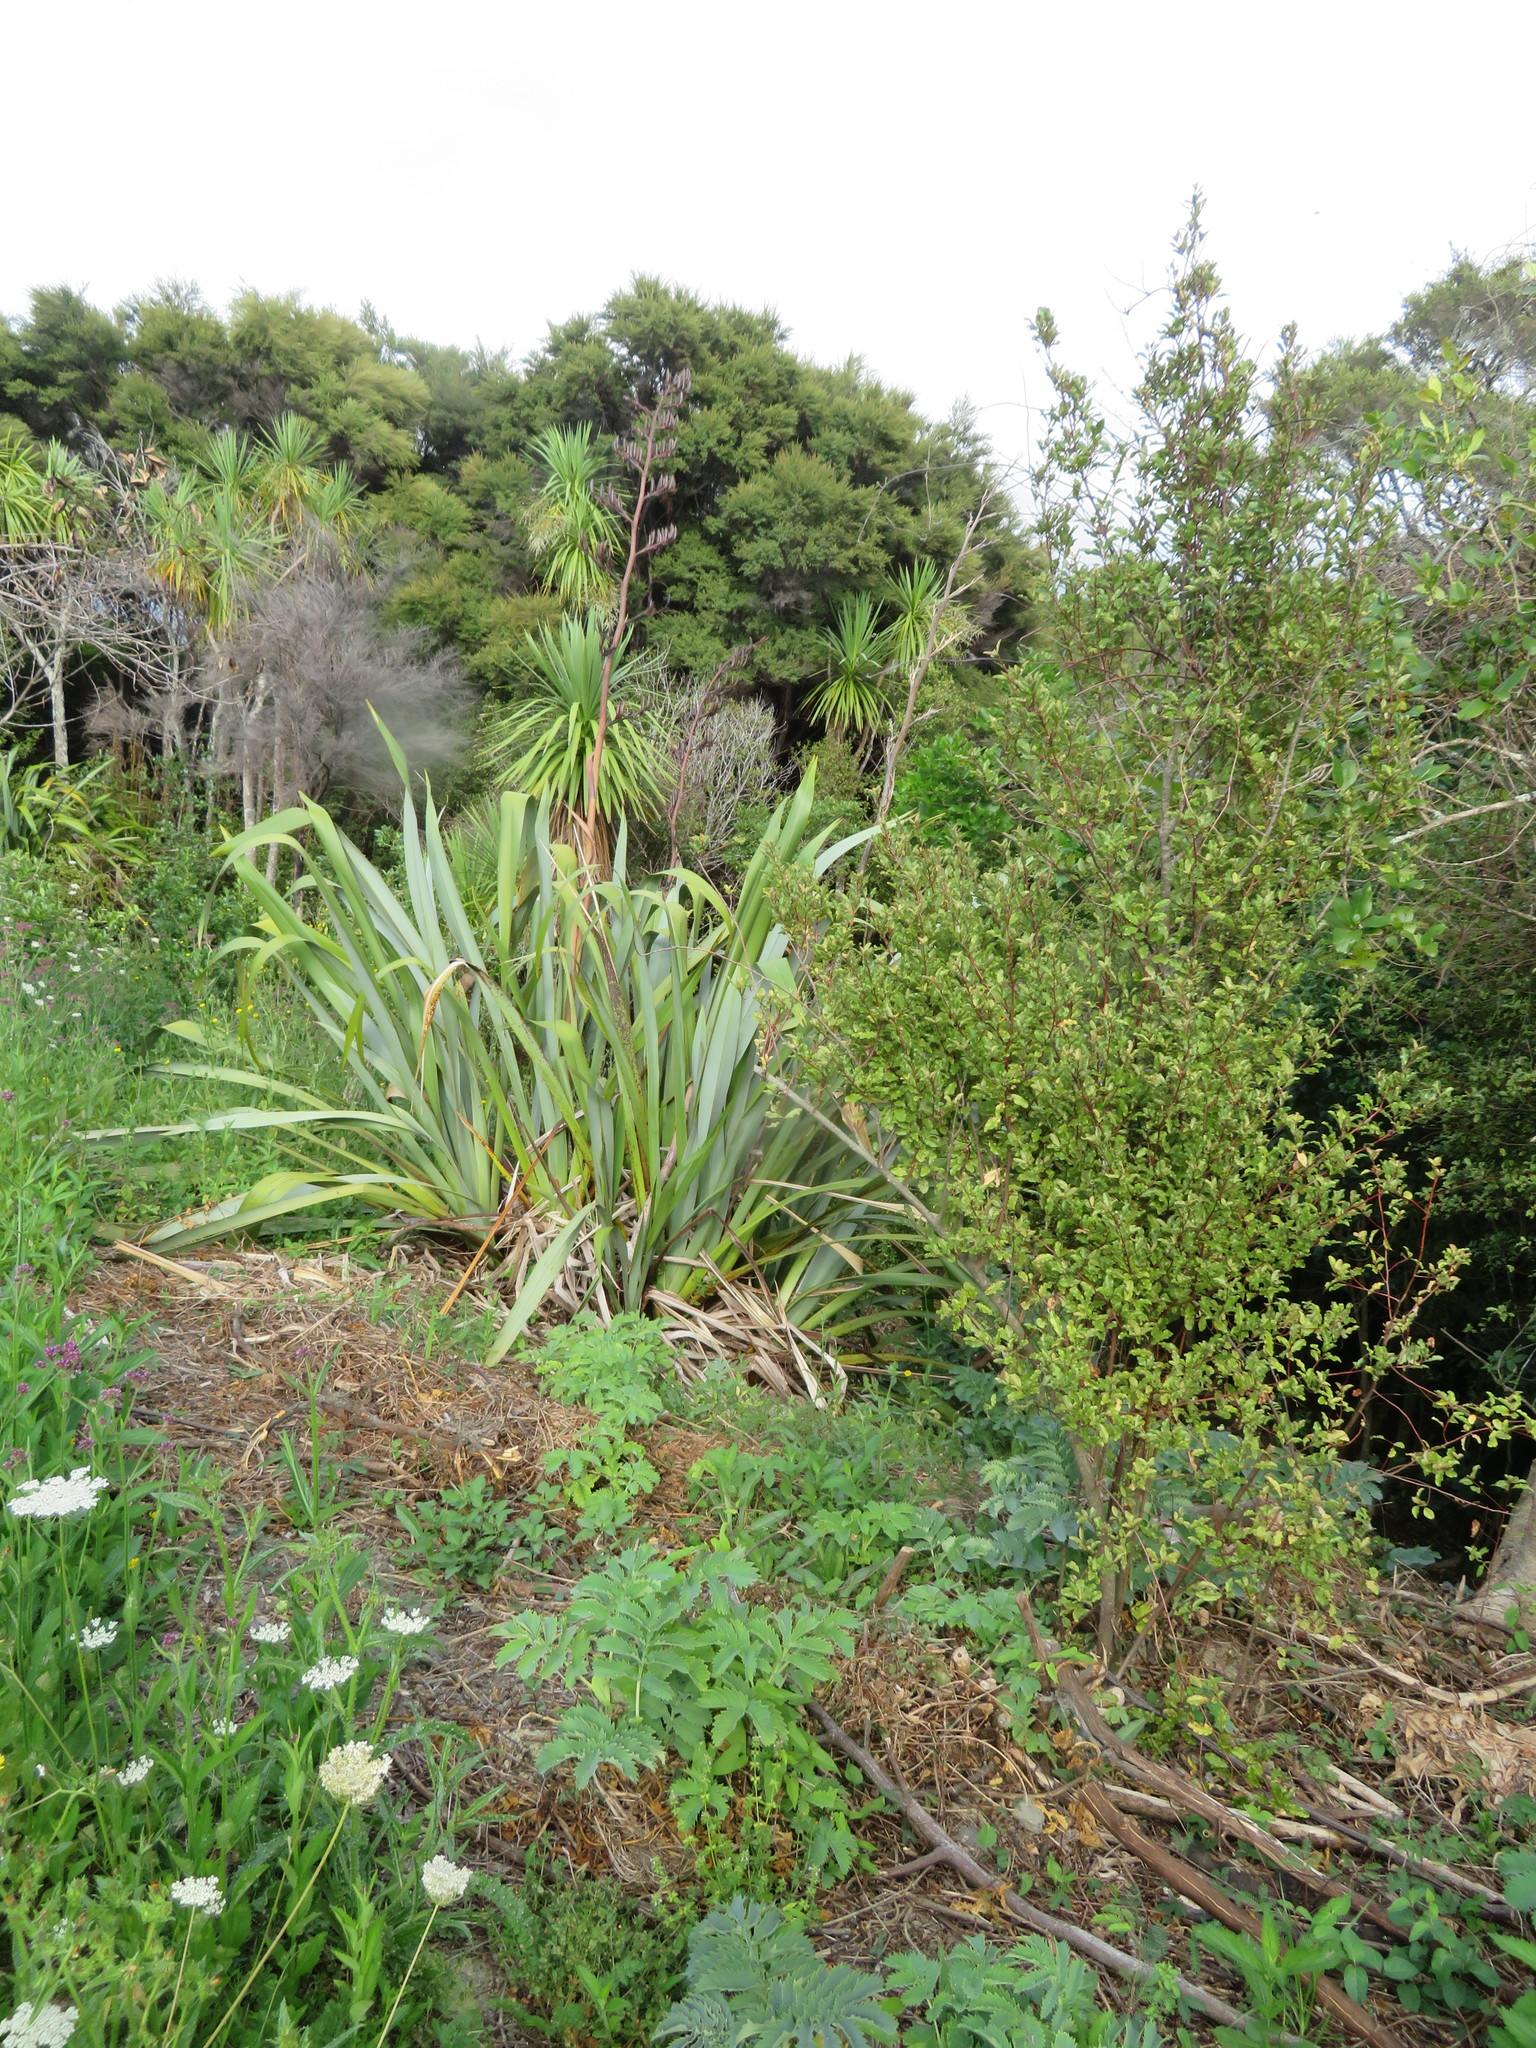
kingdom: Plantae
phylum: Tracheophyta
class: Magnoliopsida
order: Geraniales
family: Melianthaceae
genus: Melianthus
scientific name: Melianthus major
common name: Honey-flower
